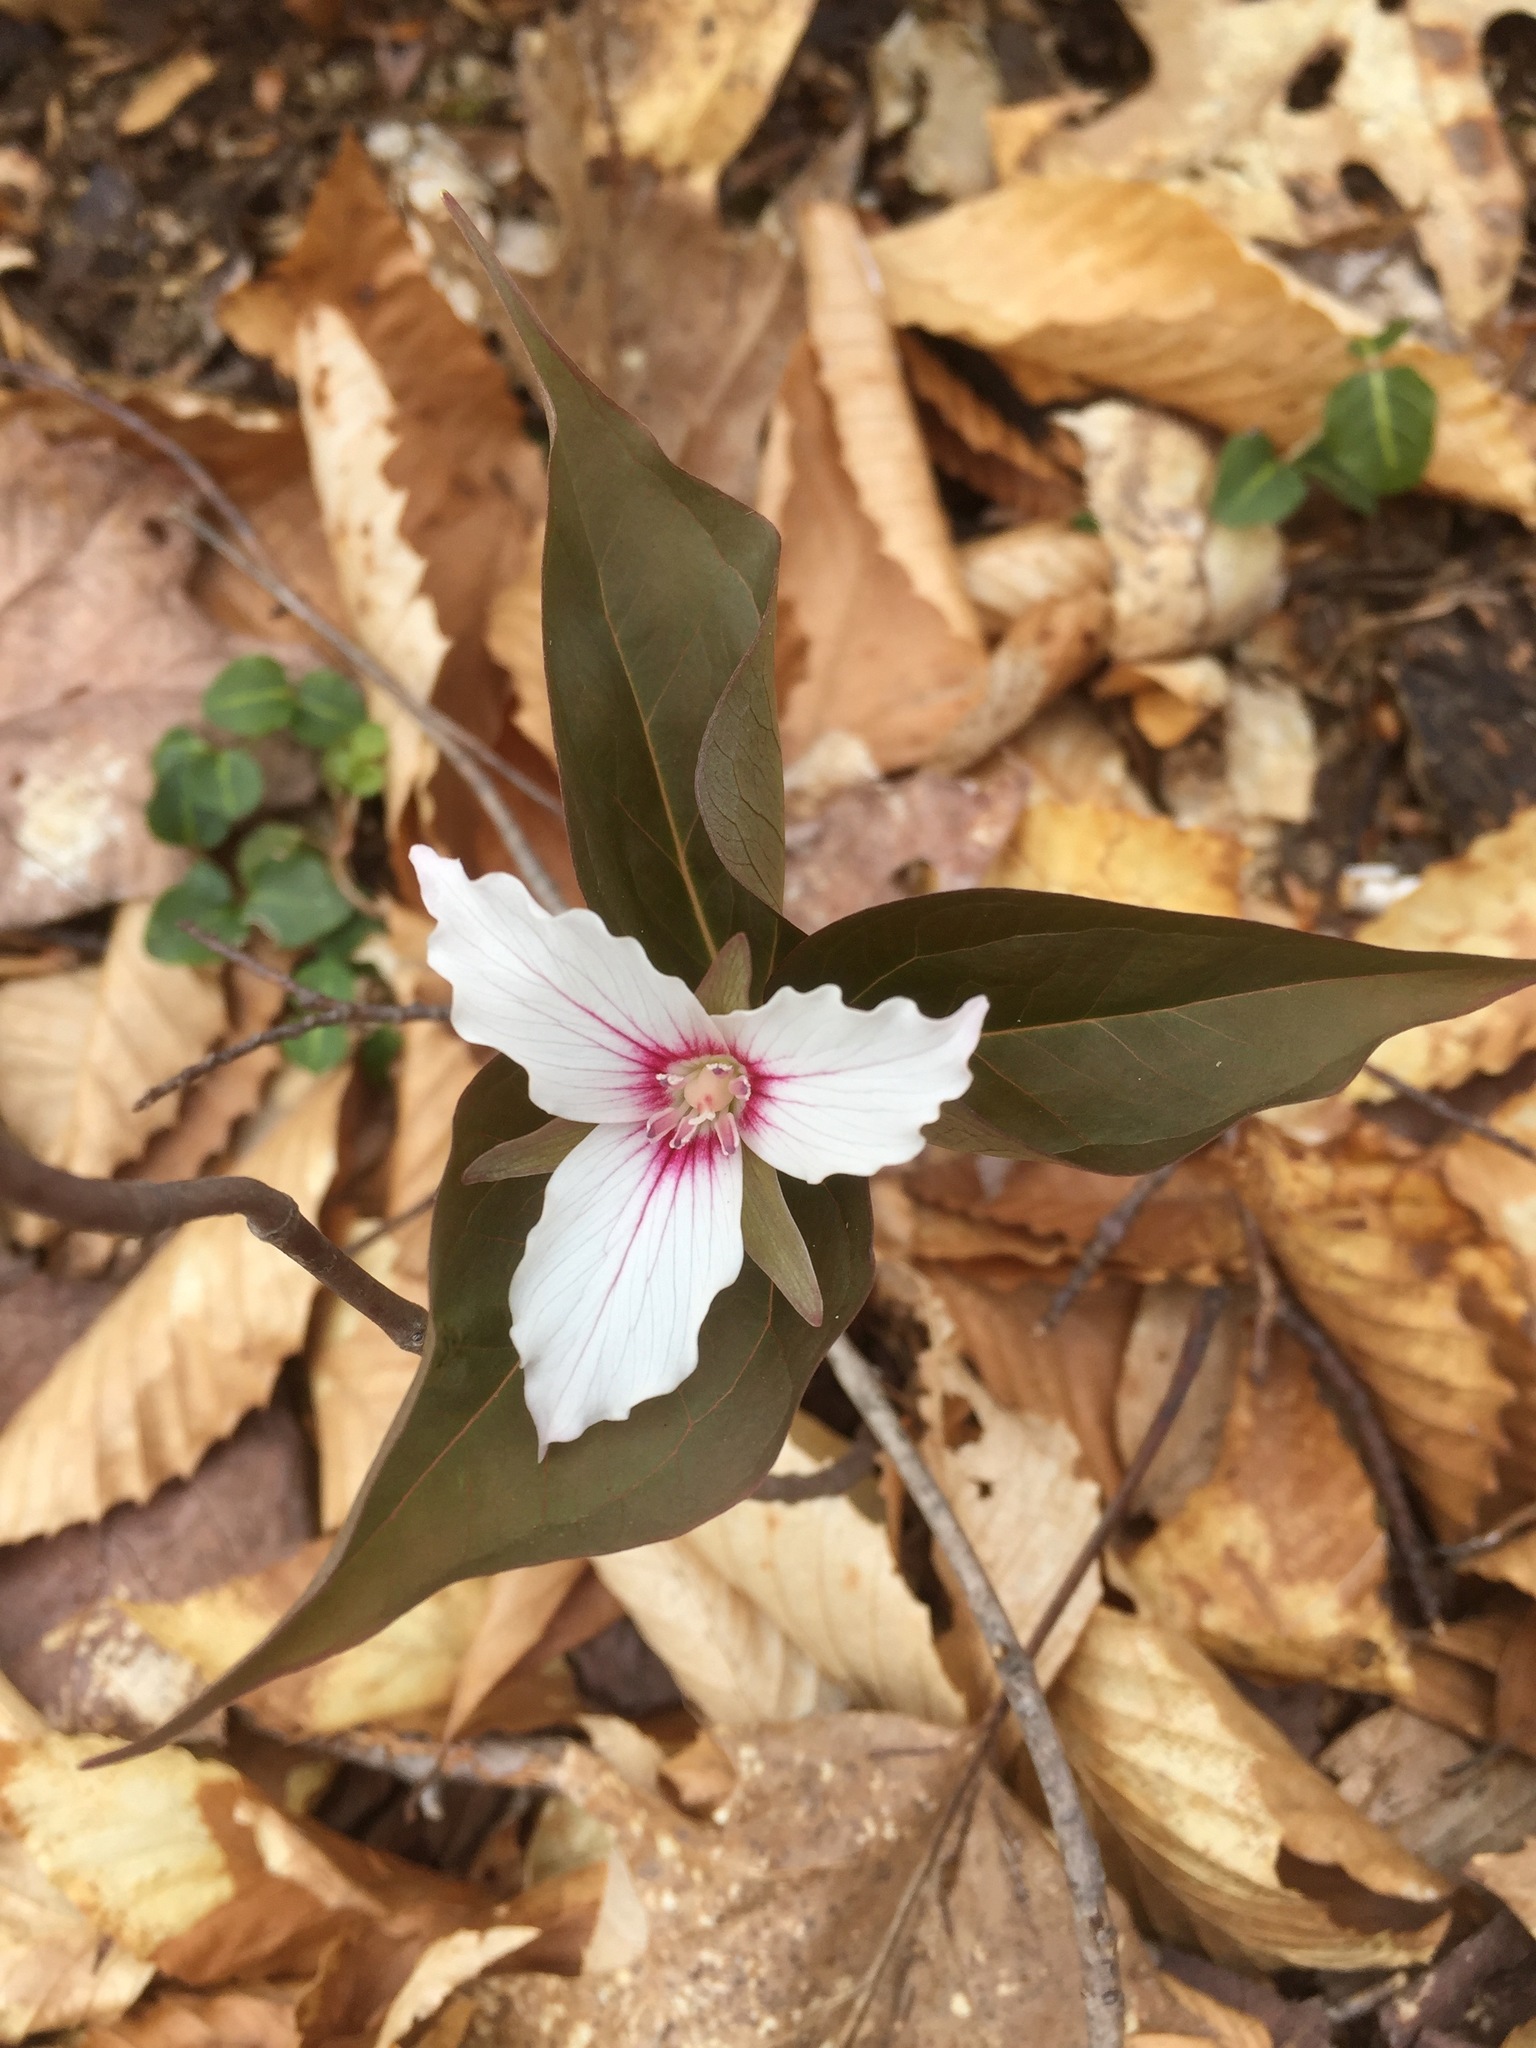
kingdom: Plantae
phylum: Tracheophyta
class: Liliopsida
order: Liliales
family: Melanthiaceae
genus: Trillium
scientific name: Trillium undulatum
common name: Paint trillium
